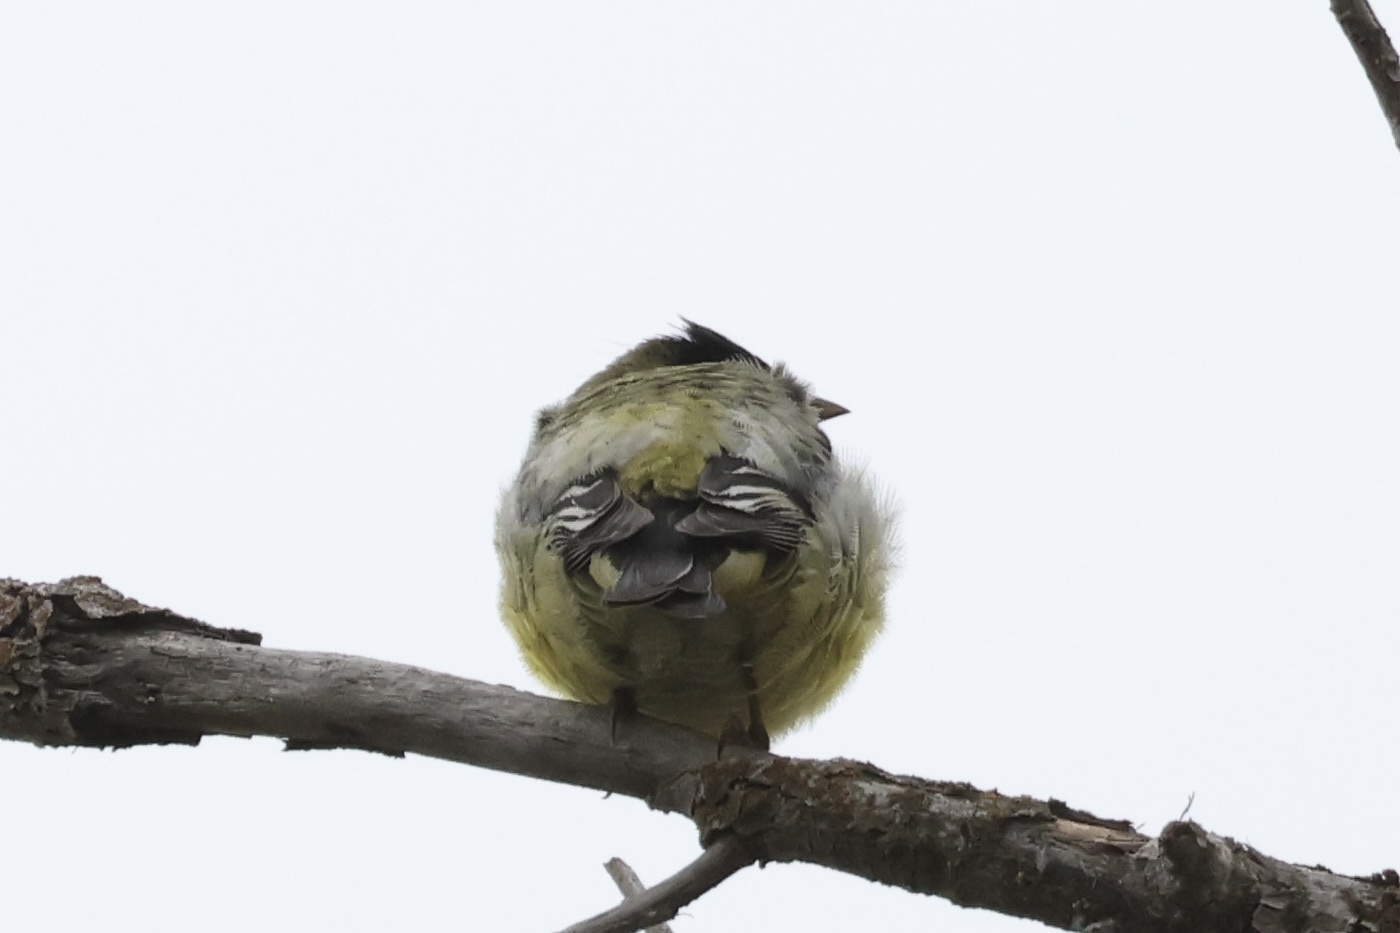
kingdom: Animalia
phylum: Chordata
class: Aves
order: Passeriformes
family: Fringillidae
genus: Spinus
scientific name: Spinus psaltria
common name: Lesser goldfinch
